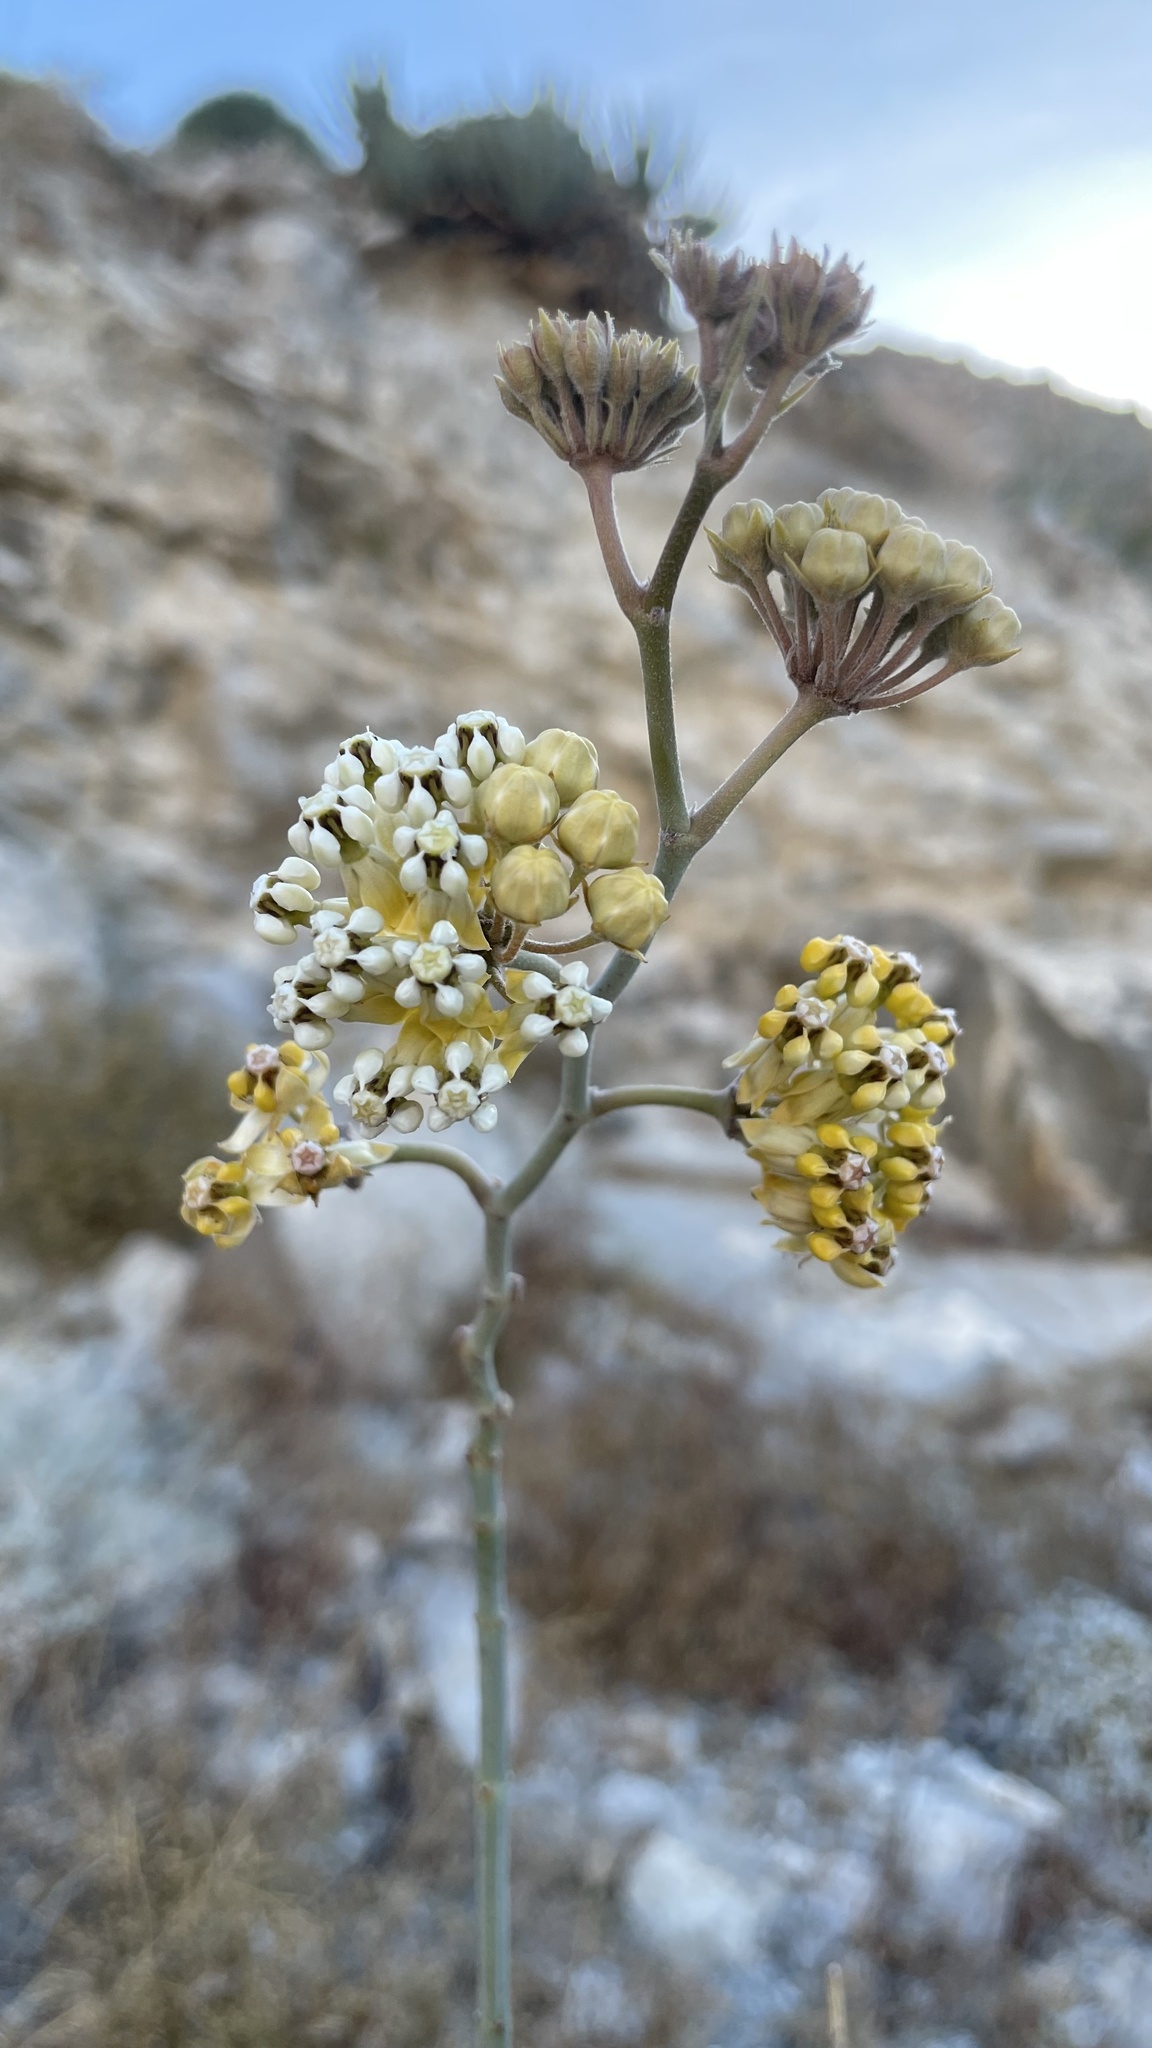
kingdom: Plantae
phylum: Tracheophyta
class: Magnoliopsida
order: Gentianales
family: Apocynaceae
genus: Asclepias
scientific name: Asclepias albicans
